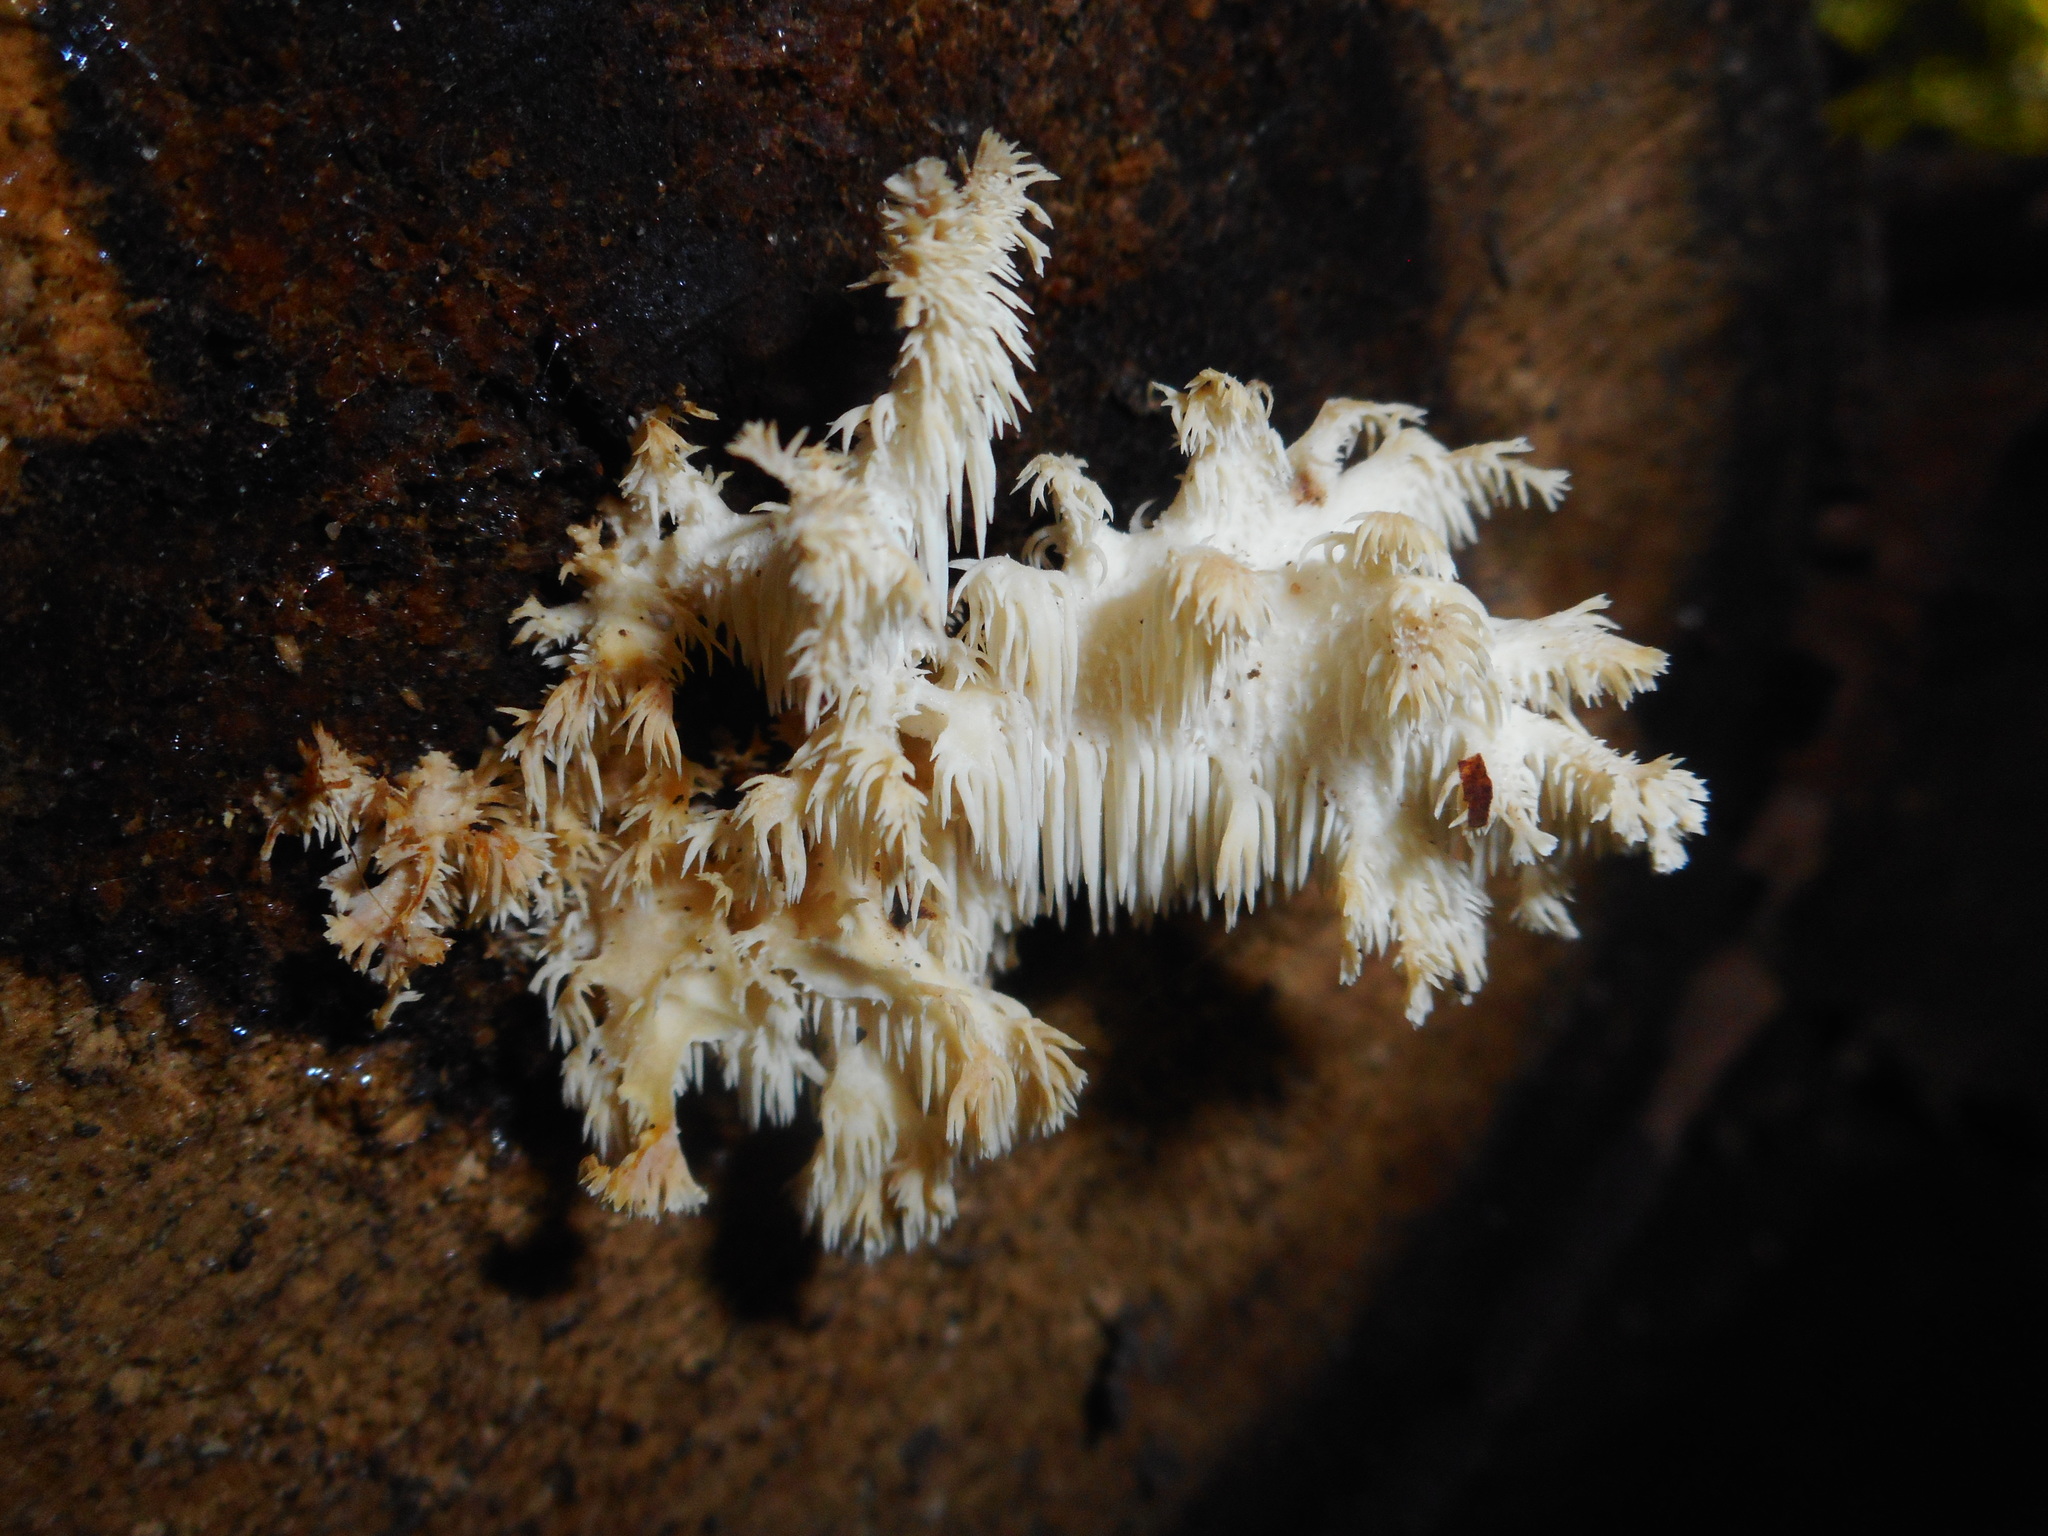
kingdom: Fungi
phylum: Basidiomycota
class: Agaricomycetes
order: Russulales
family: Hericiaceae
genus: Hericium
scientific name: Hericium coralloides
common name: Coral tooth
